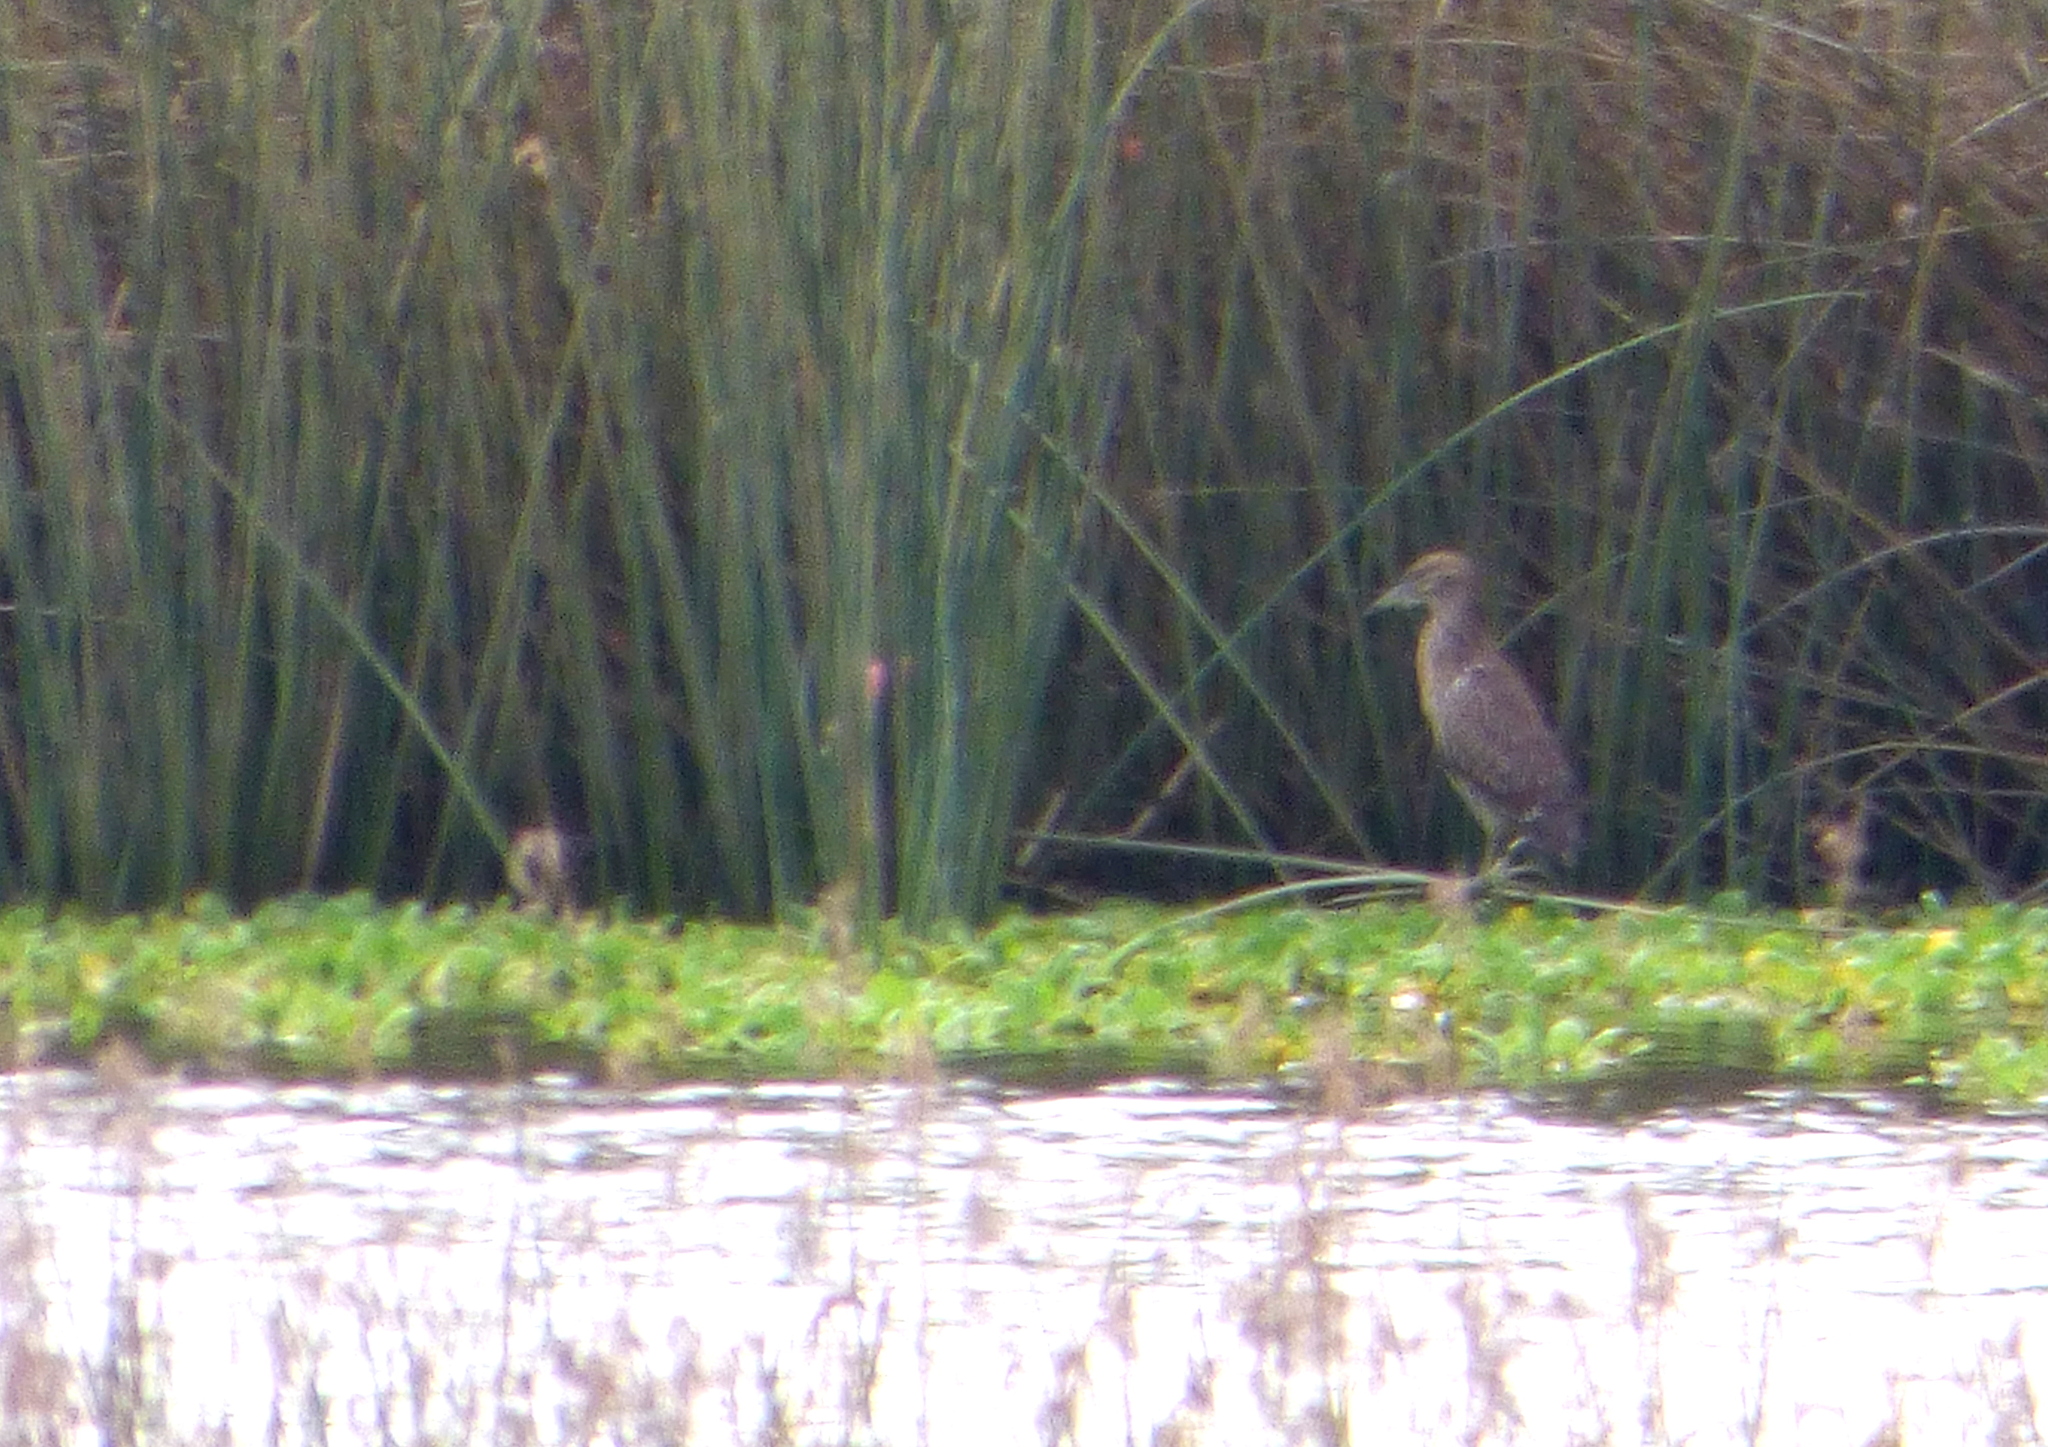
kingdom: Animalia
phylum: Chordata
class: Aves
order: Pelecaniformes
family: Ardeidae
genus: Nycticorax
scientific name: Nycticorax nycticorax
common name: Black-crowned night heron
